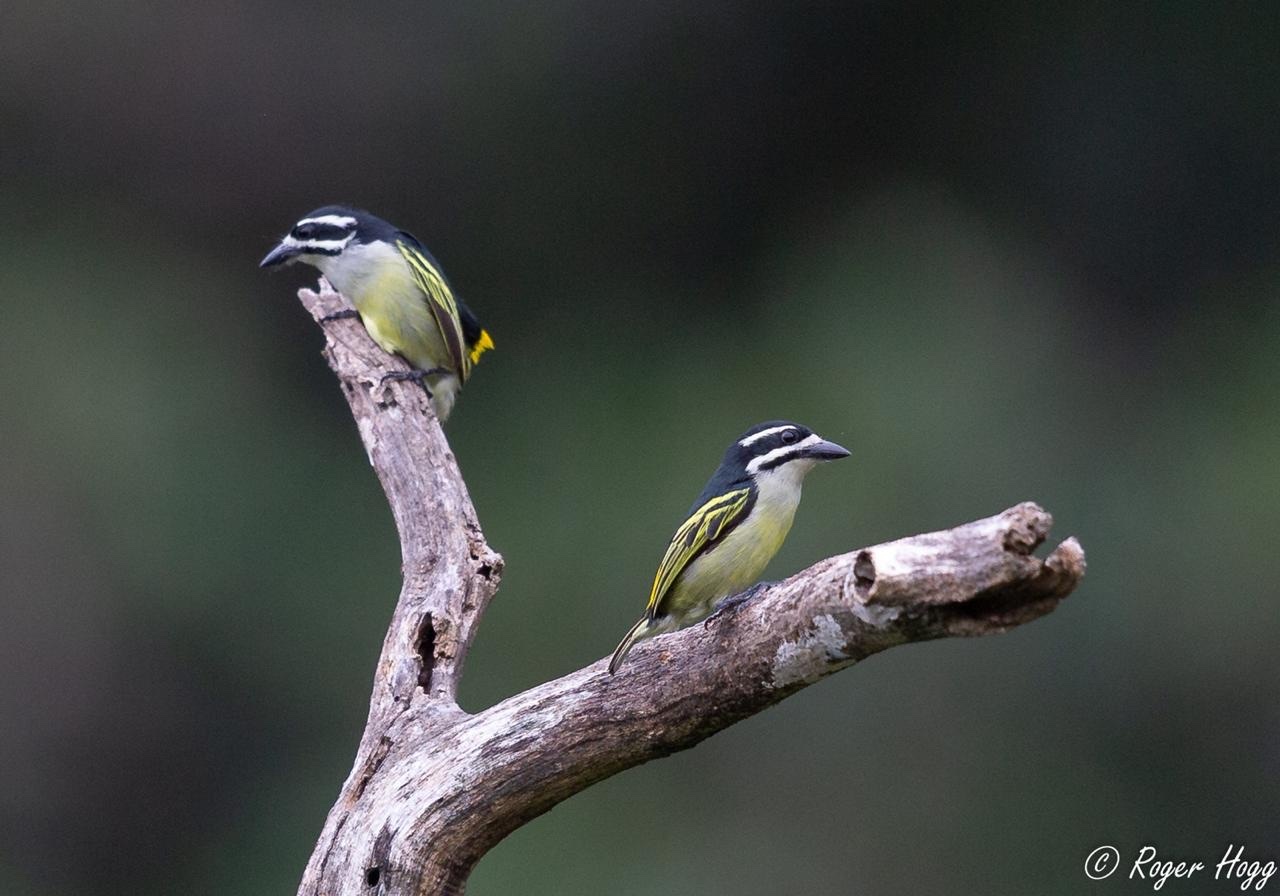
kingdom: Animalia
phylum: Chordata
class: Aves
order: Piciformes
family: Lybiidae
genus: Pogoniulus
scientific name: Pogoniulus bilineatus
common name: Yellow-rumped tinkerbird
